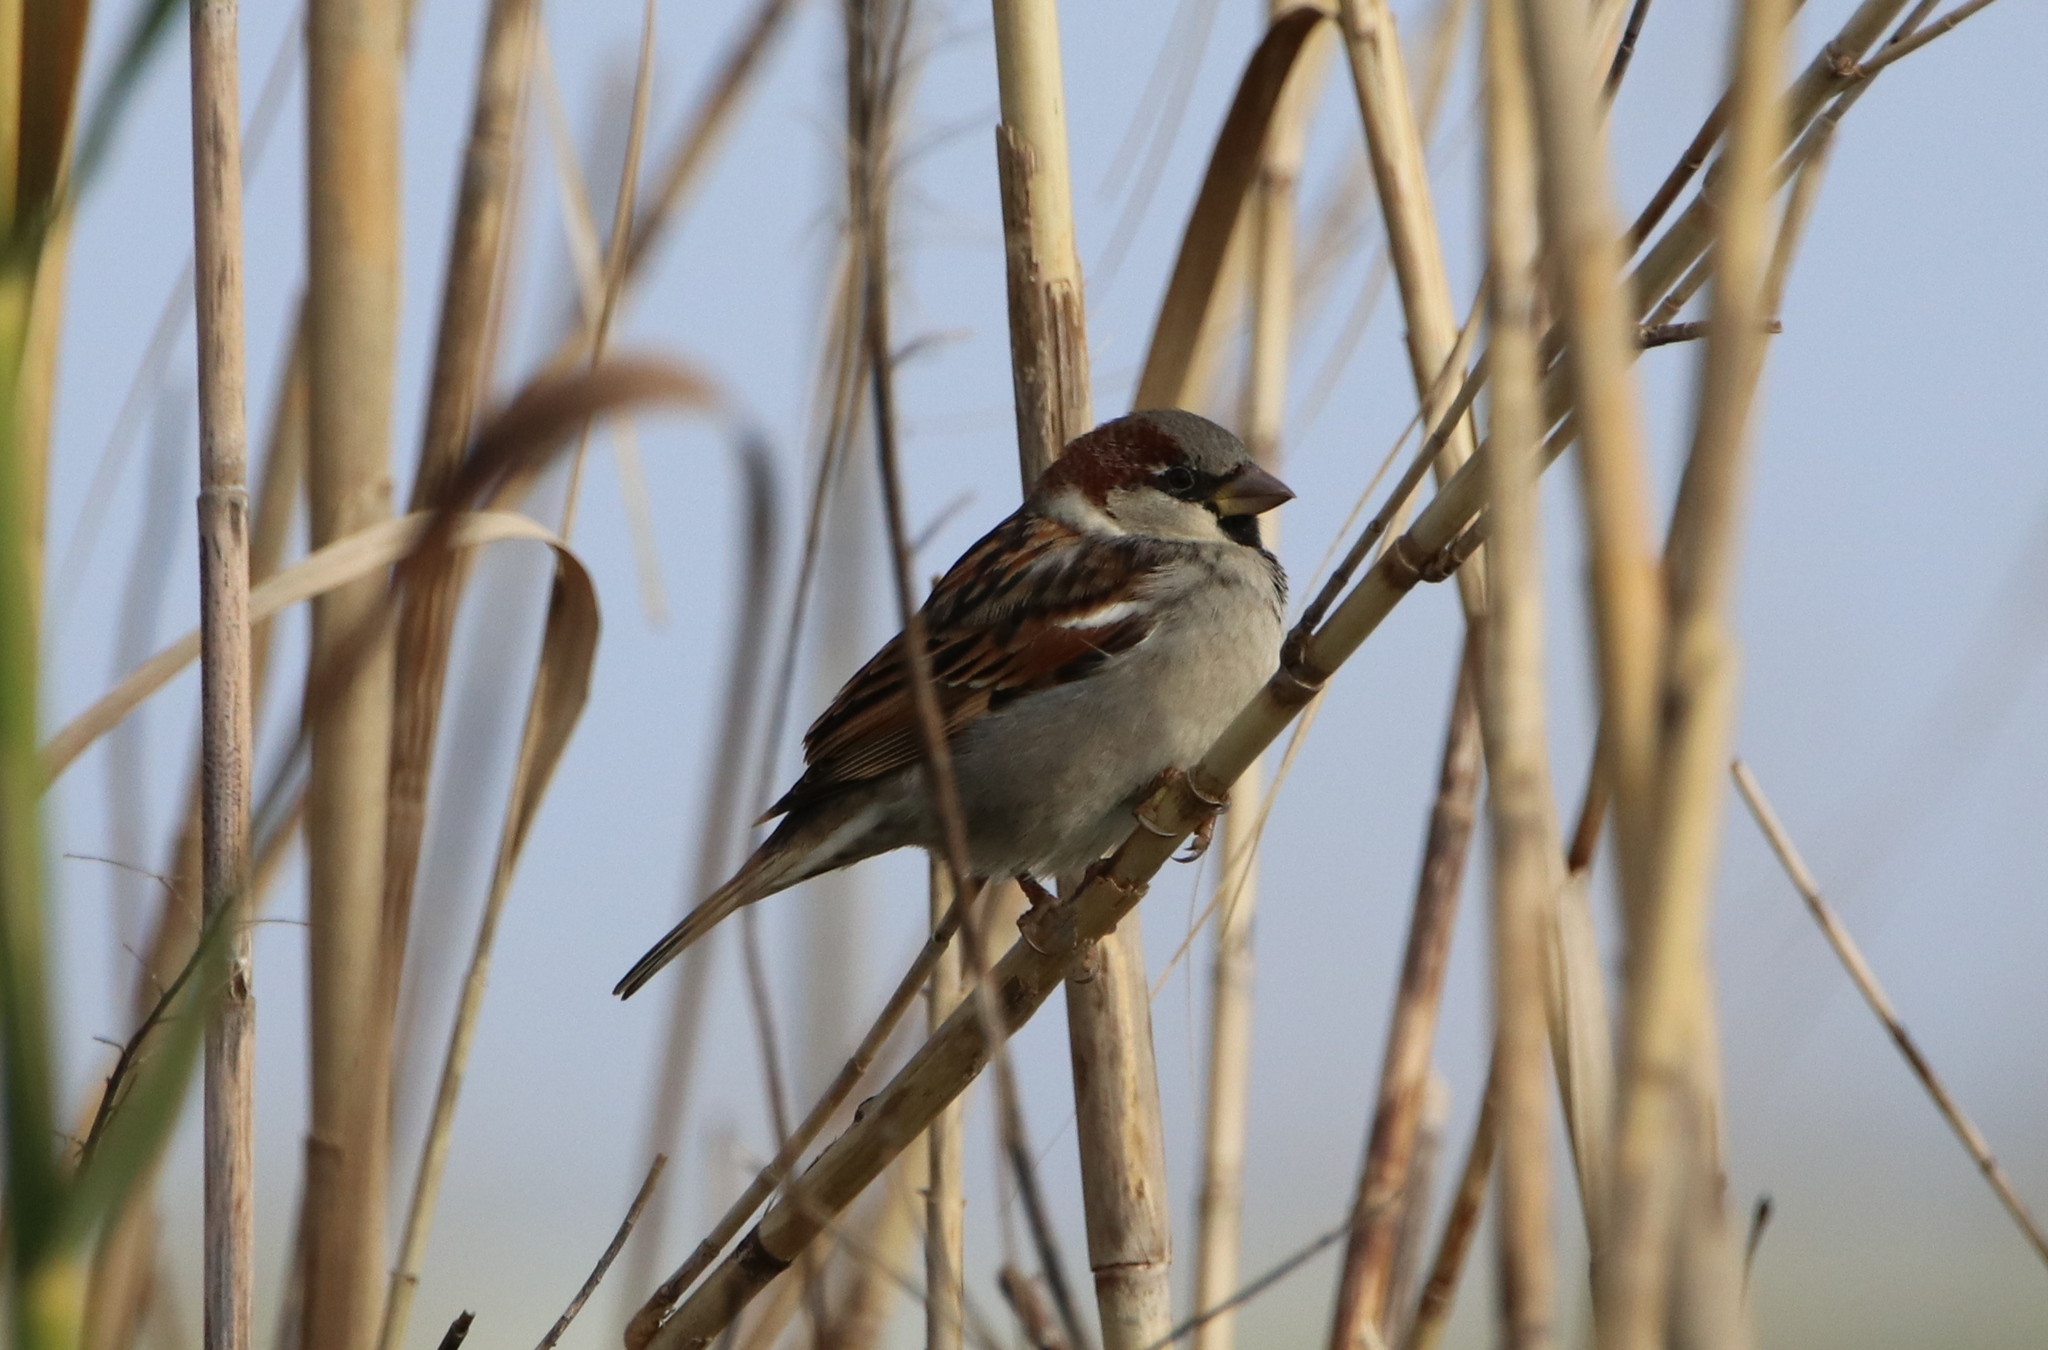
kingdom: Animalia
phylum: Chordata
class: Aves
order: Passeriformes
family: Passeridae
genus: Passer
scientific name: Passer domesticus
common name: House sparrow
